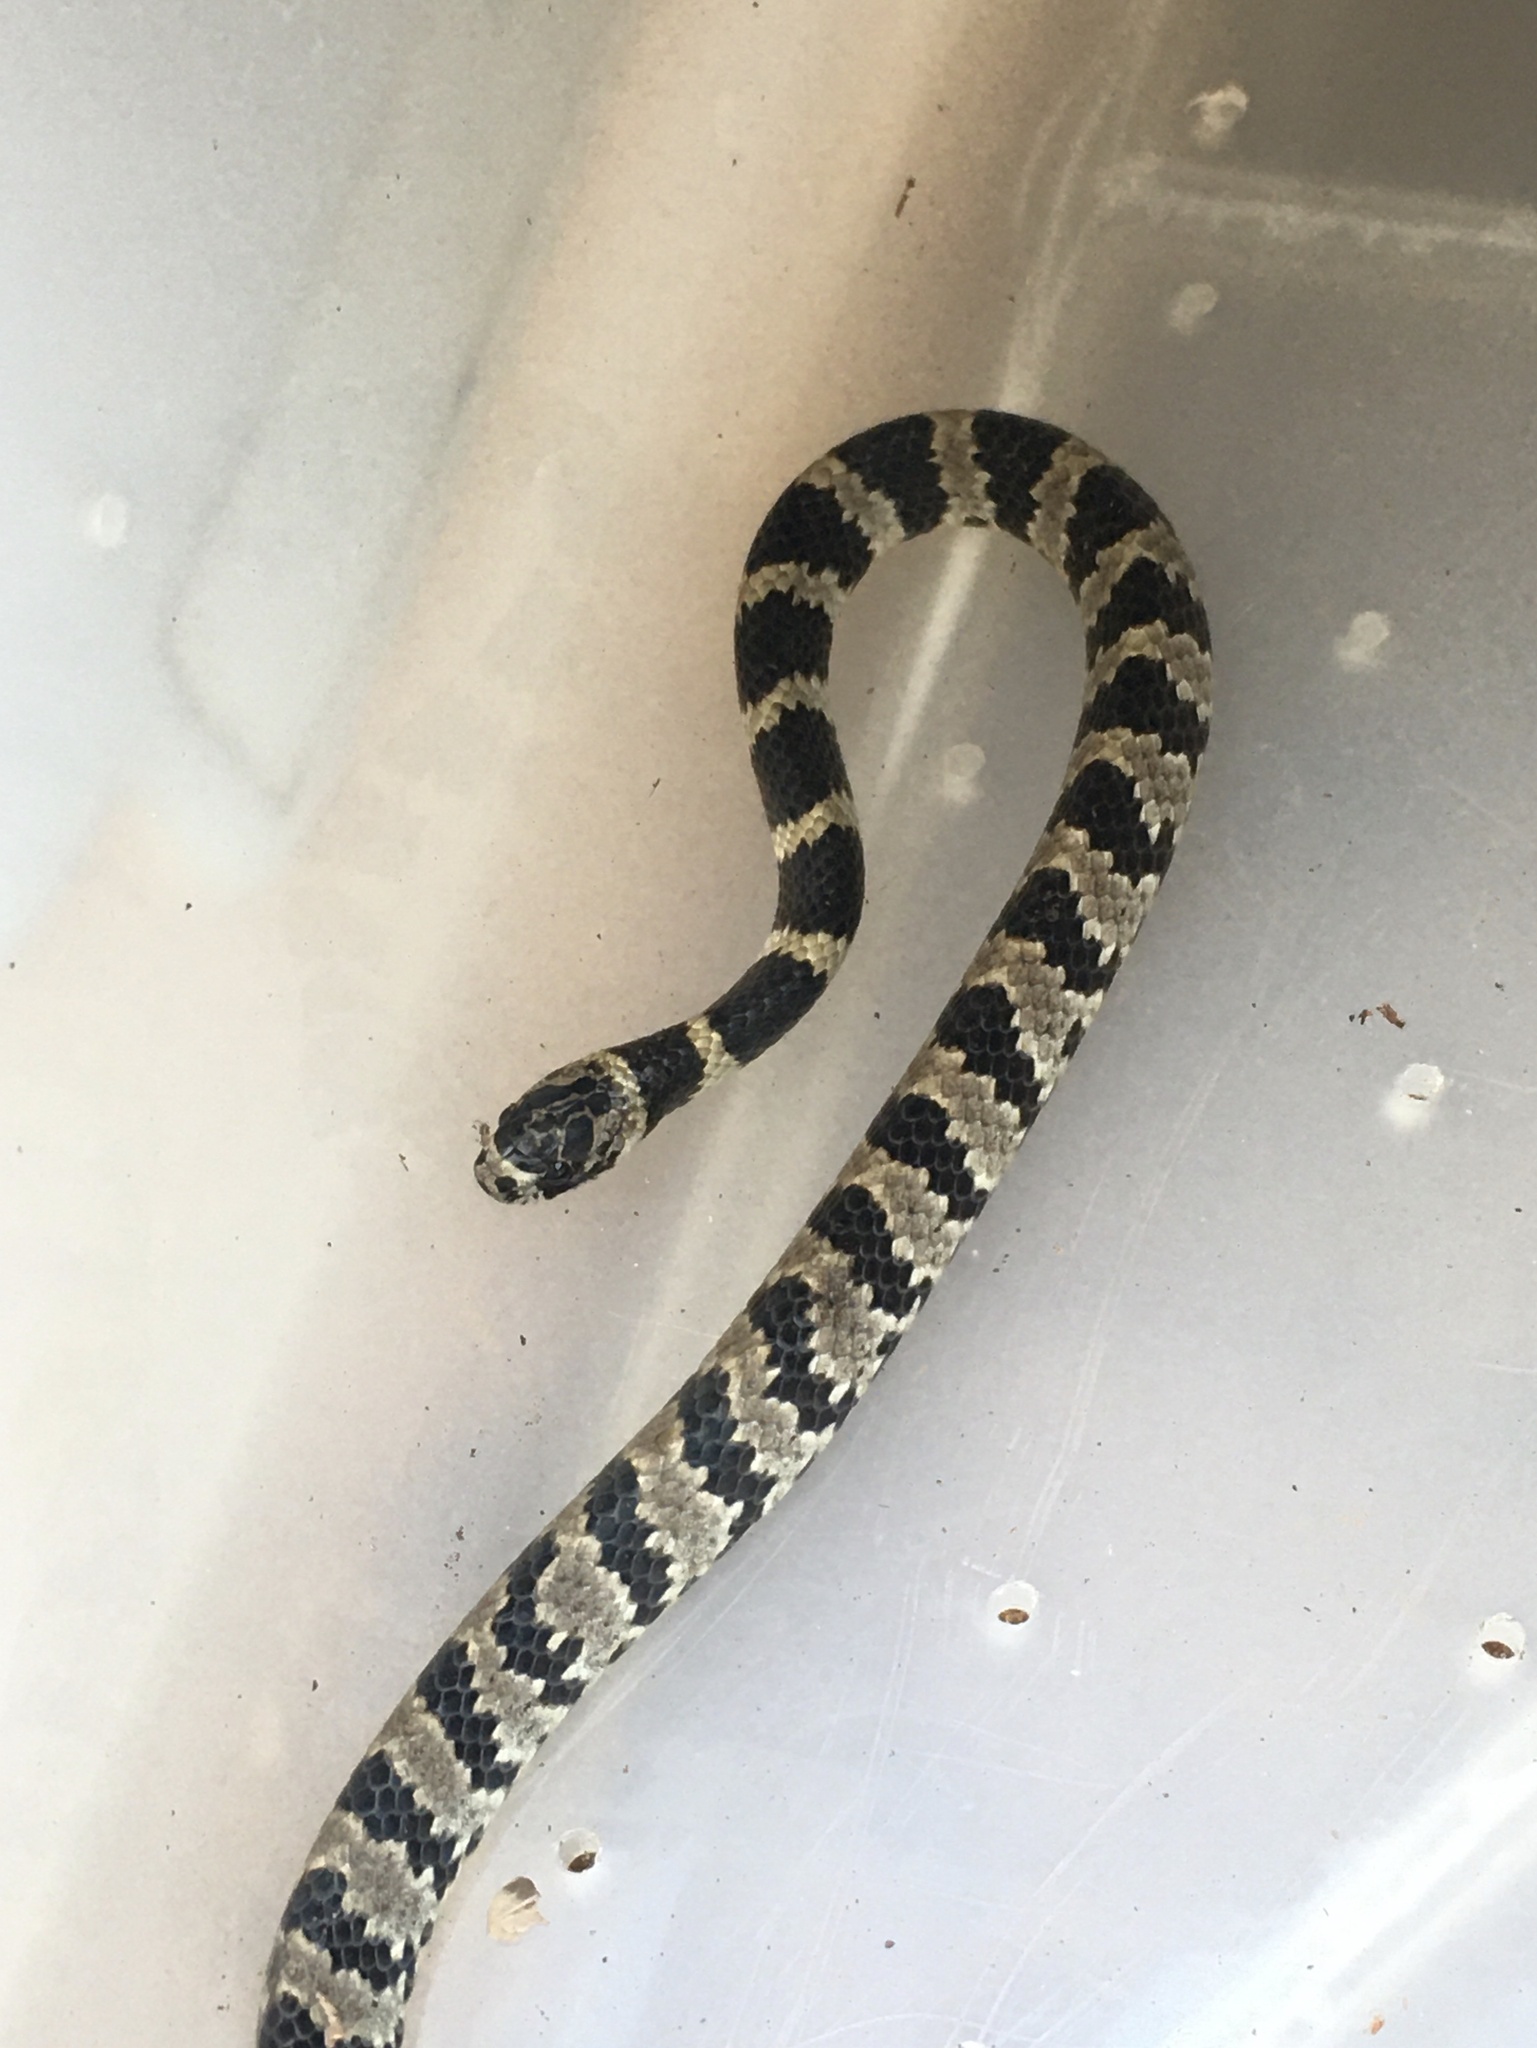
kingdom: Animalia
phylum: Chordata
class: Squamata
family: Colubridae
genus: Dipsas
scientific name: Dipsas mikanii
